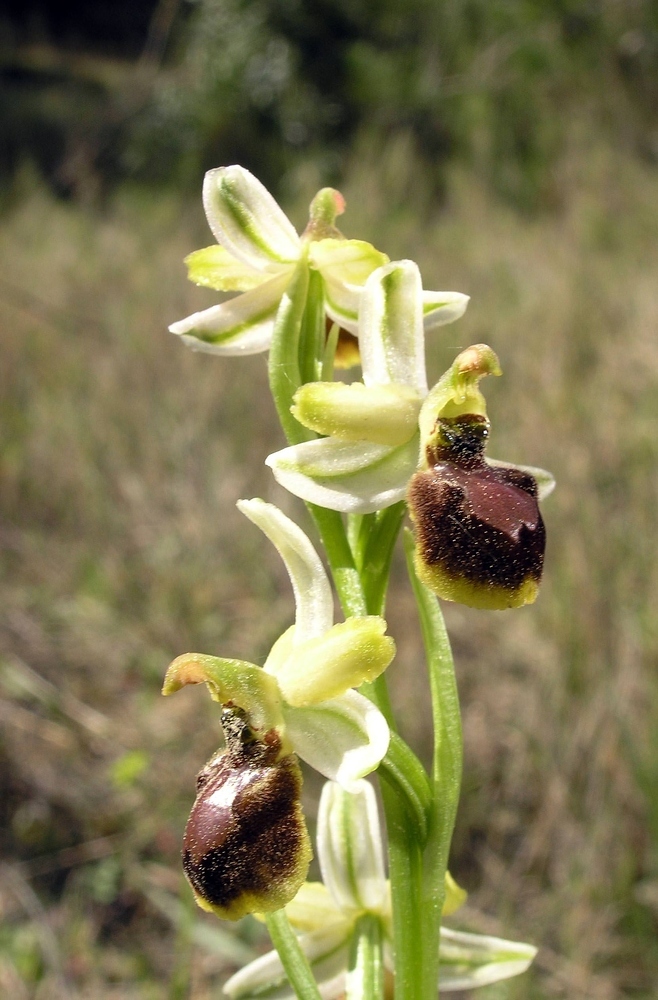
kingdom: Plantae
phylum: Tracheophyta
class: Liliopsida
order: Asparagales
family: Orchidaceae
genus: Ophrys
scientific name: Ophrys sphegodes
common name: Early spider-orchid
